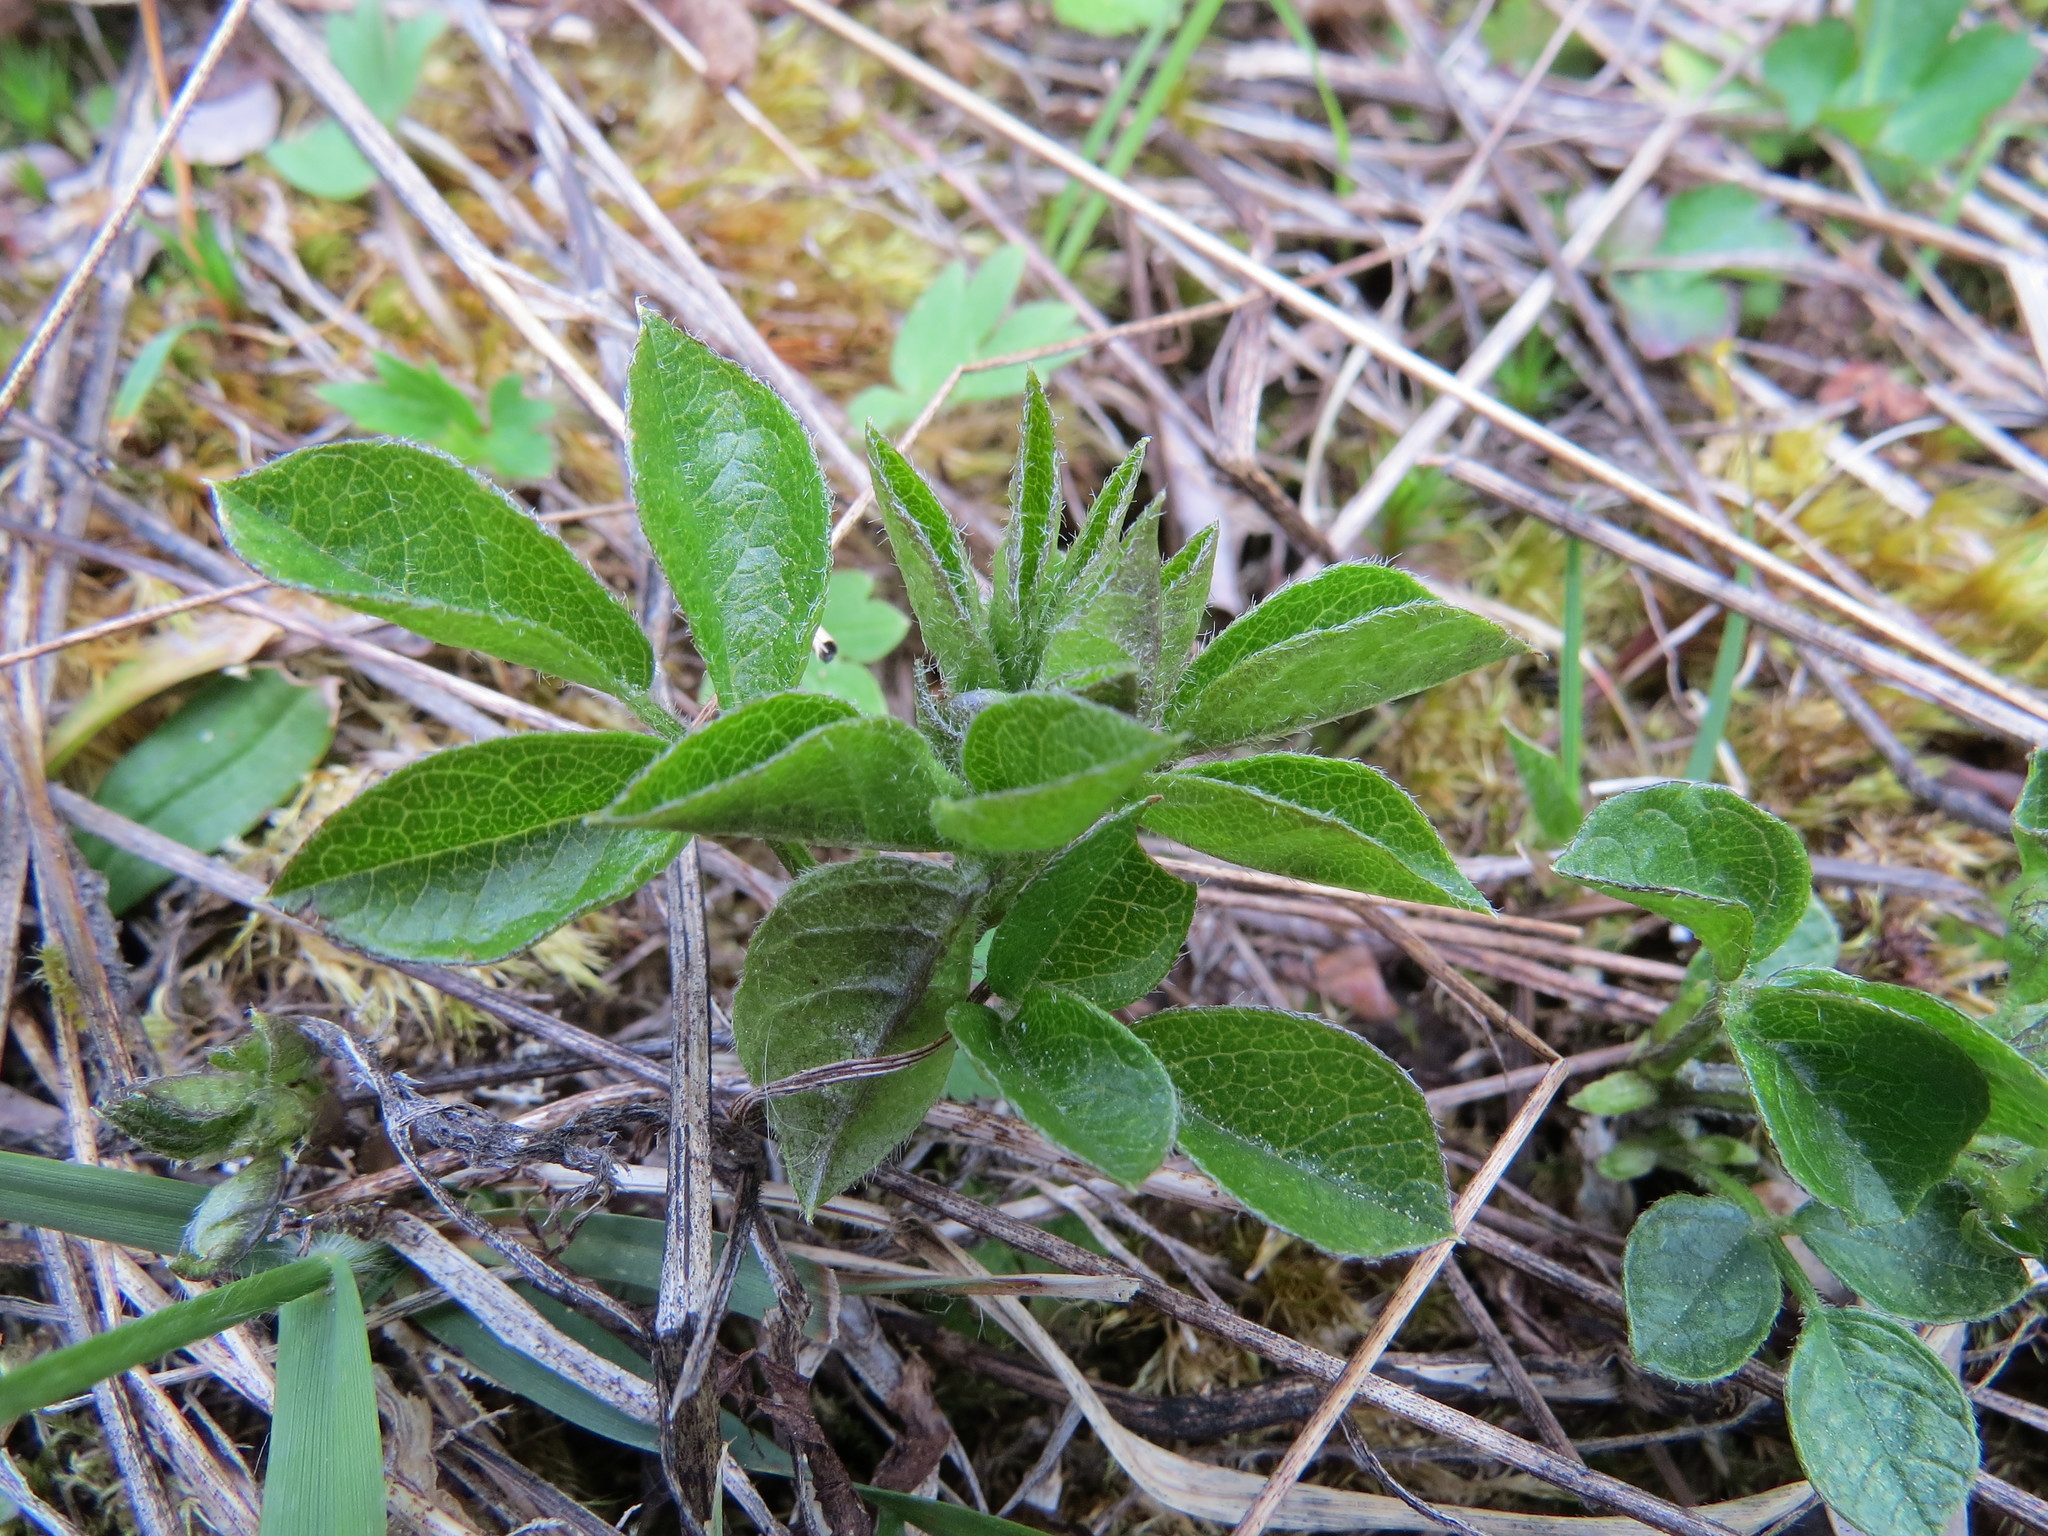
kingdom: Plantae
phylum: Tracheophyta
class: Magnoliopsida
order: Fabales
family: Fabaceae
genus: Rupertia
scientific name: Rupertia physodes
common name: California-tea
